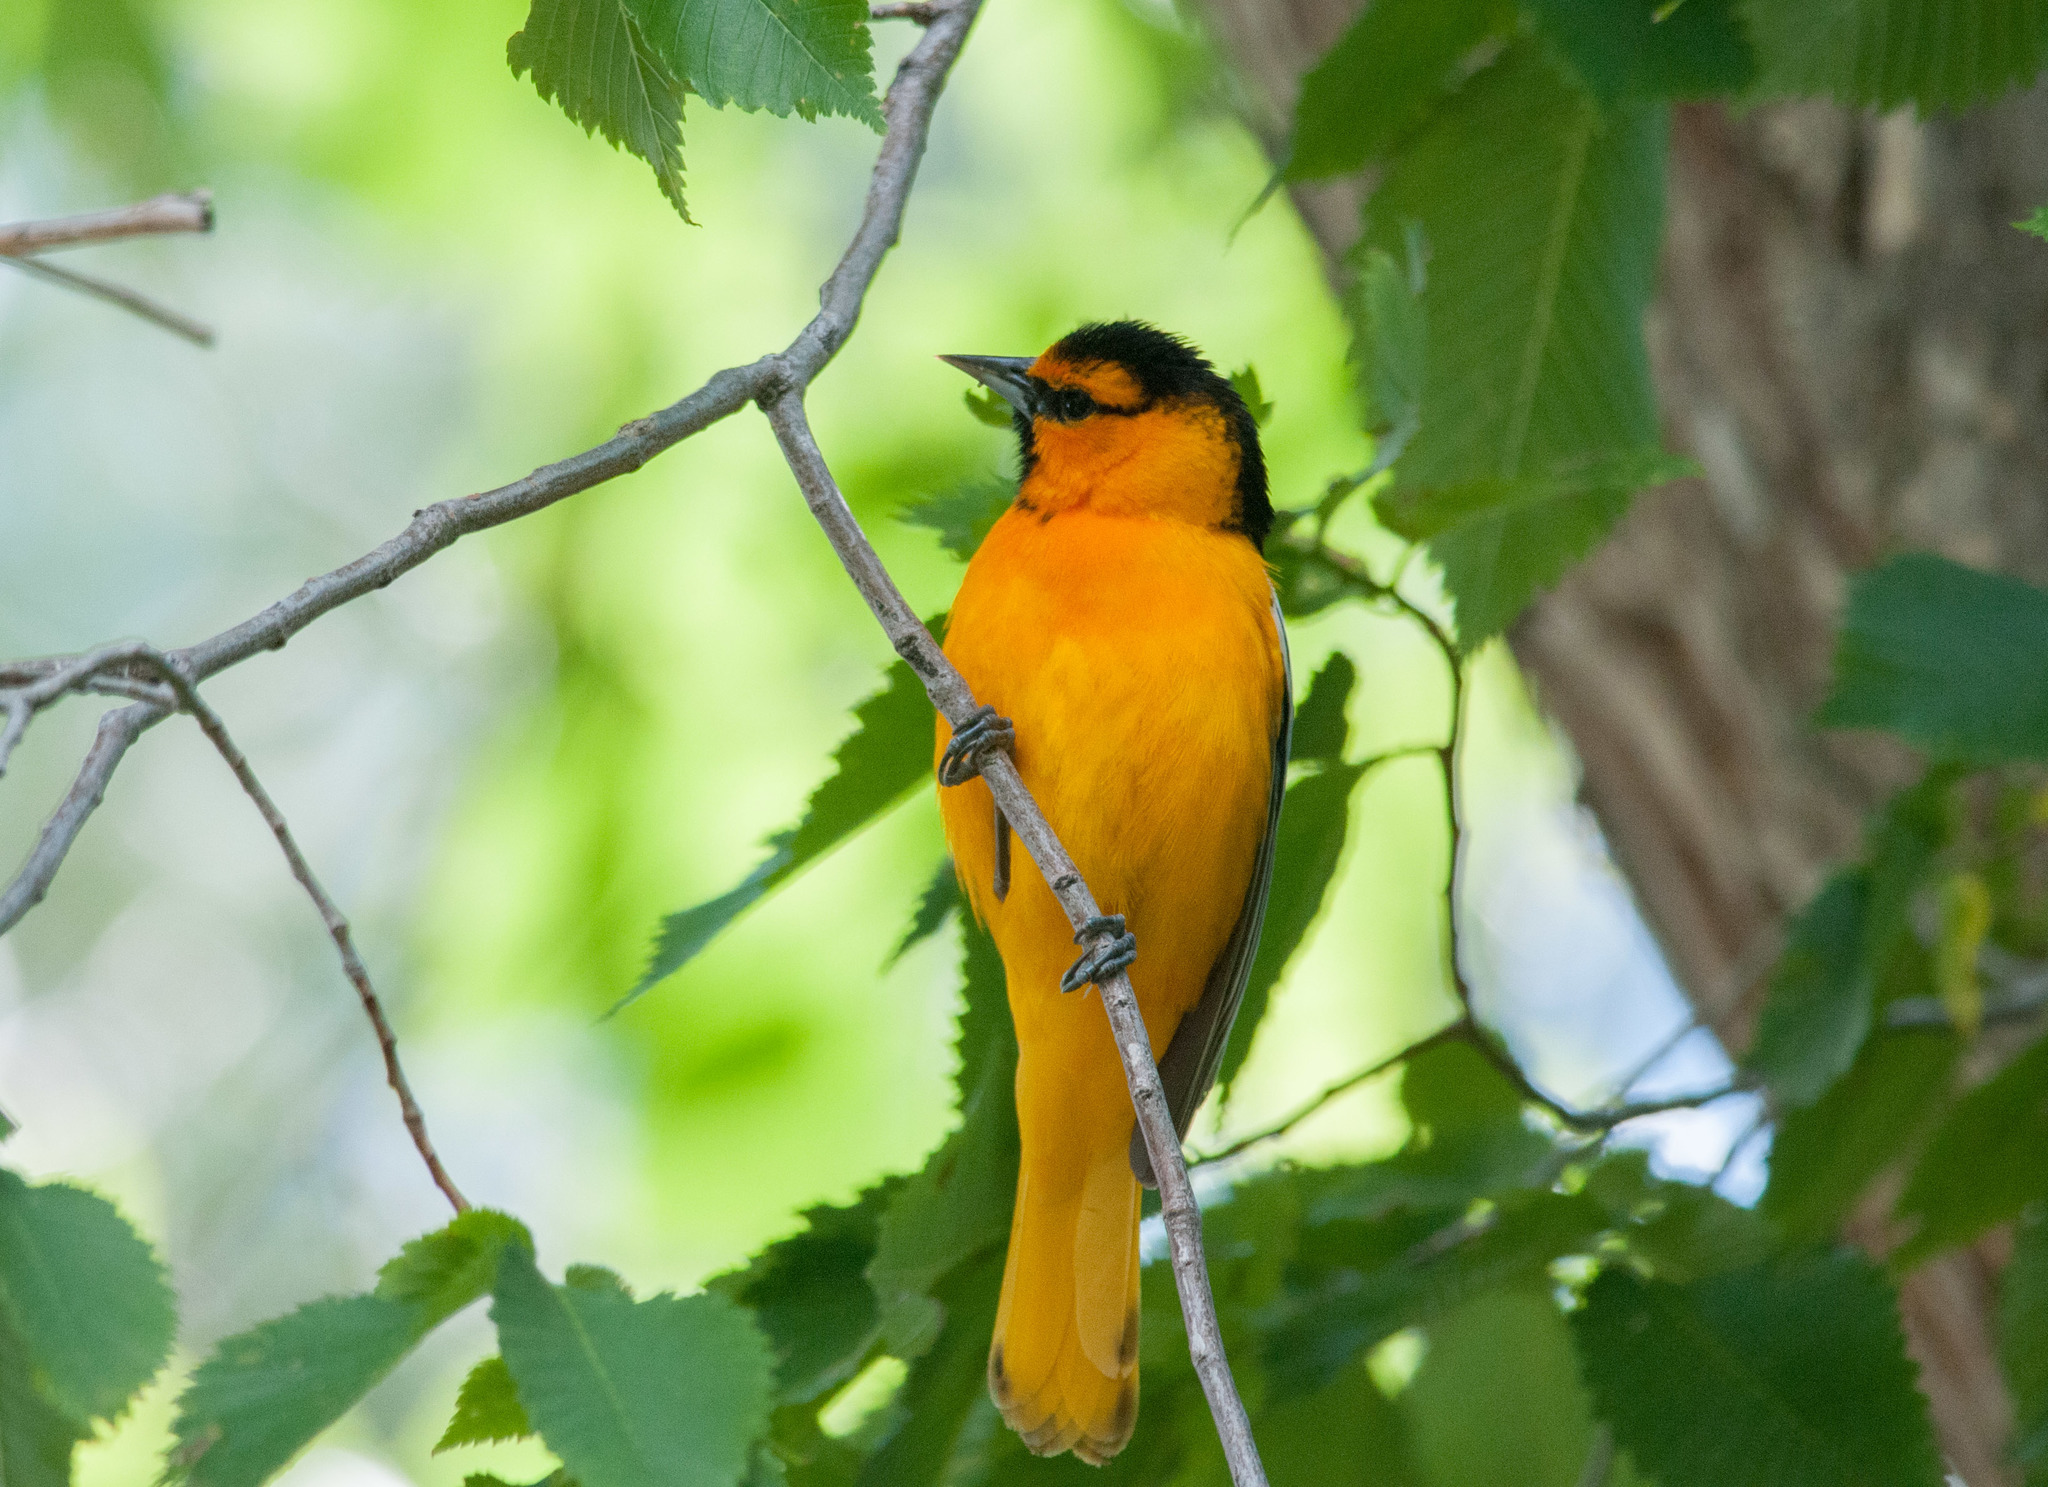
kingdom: Animalia
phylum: Chordata
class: Aves
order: Passeriformes
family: Icteridae
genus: Icterus
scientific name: Icterus bullockii
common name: Bullock's oriole
